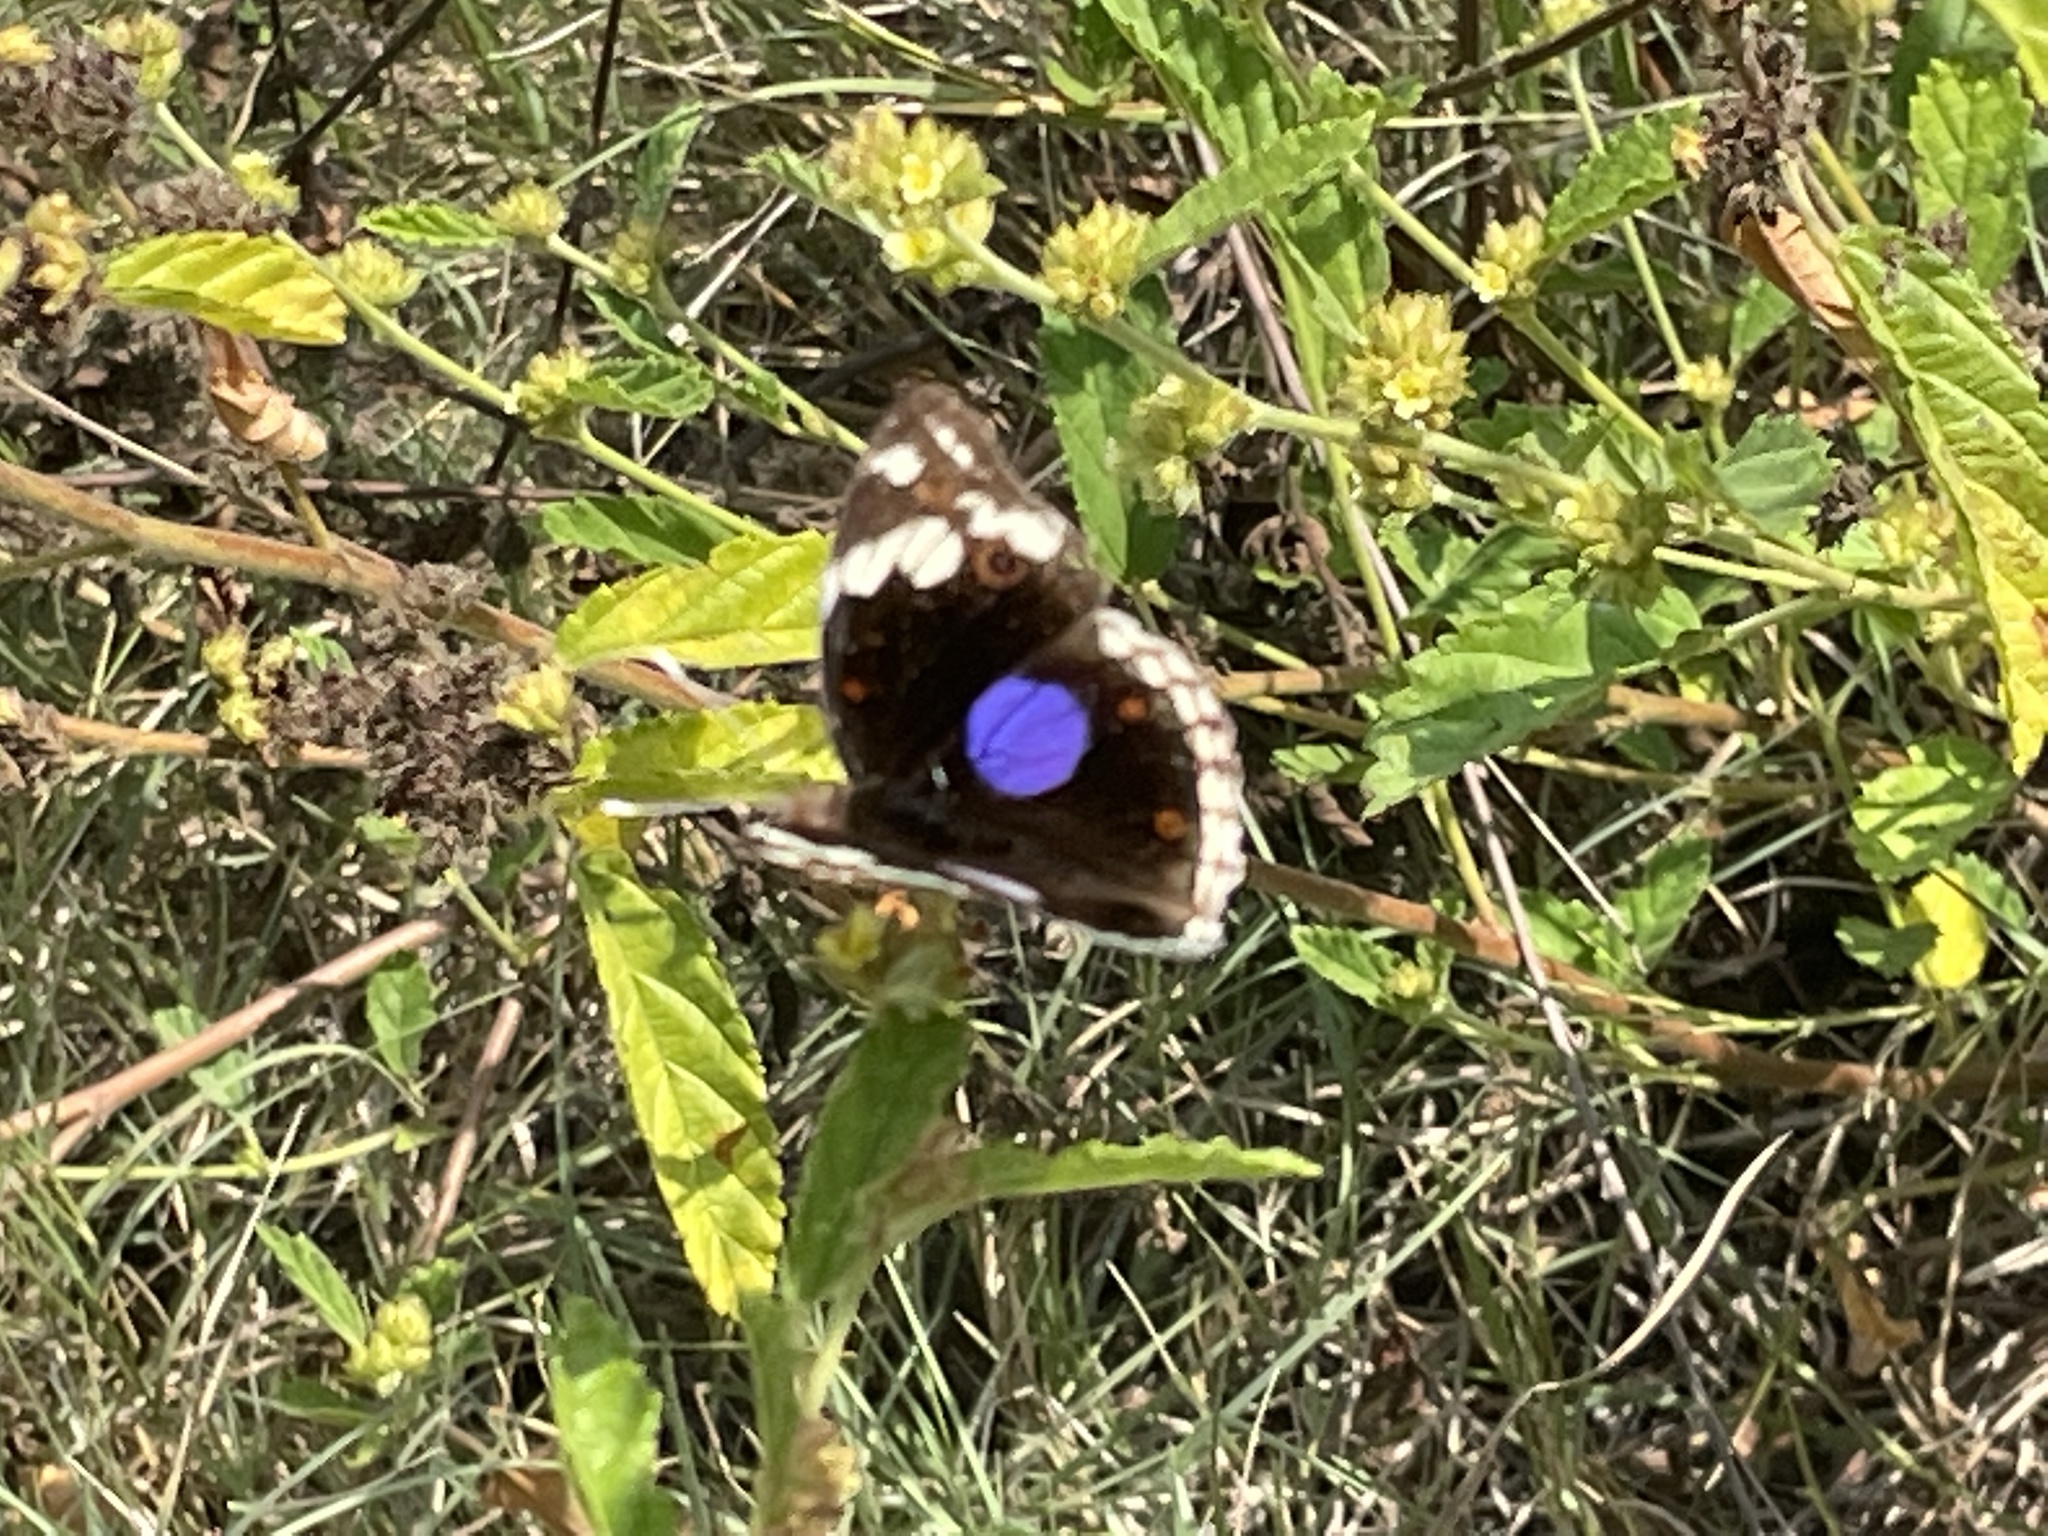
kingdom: Animalia
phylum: Arthropoda
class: Insecta
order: Lepidoptera
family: Nymphalidae
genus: Junonia
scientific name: Junonia oenone
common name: Dark blue pansy
